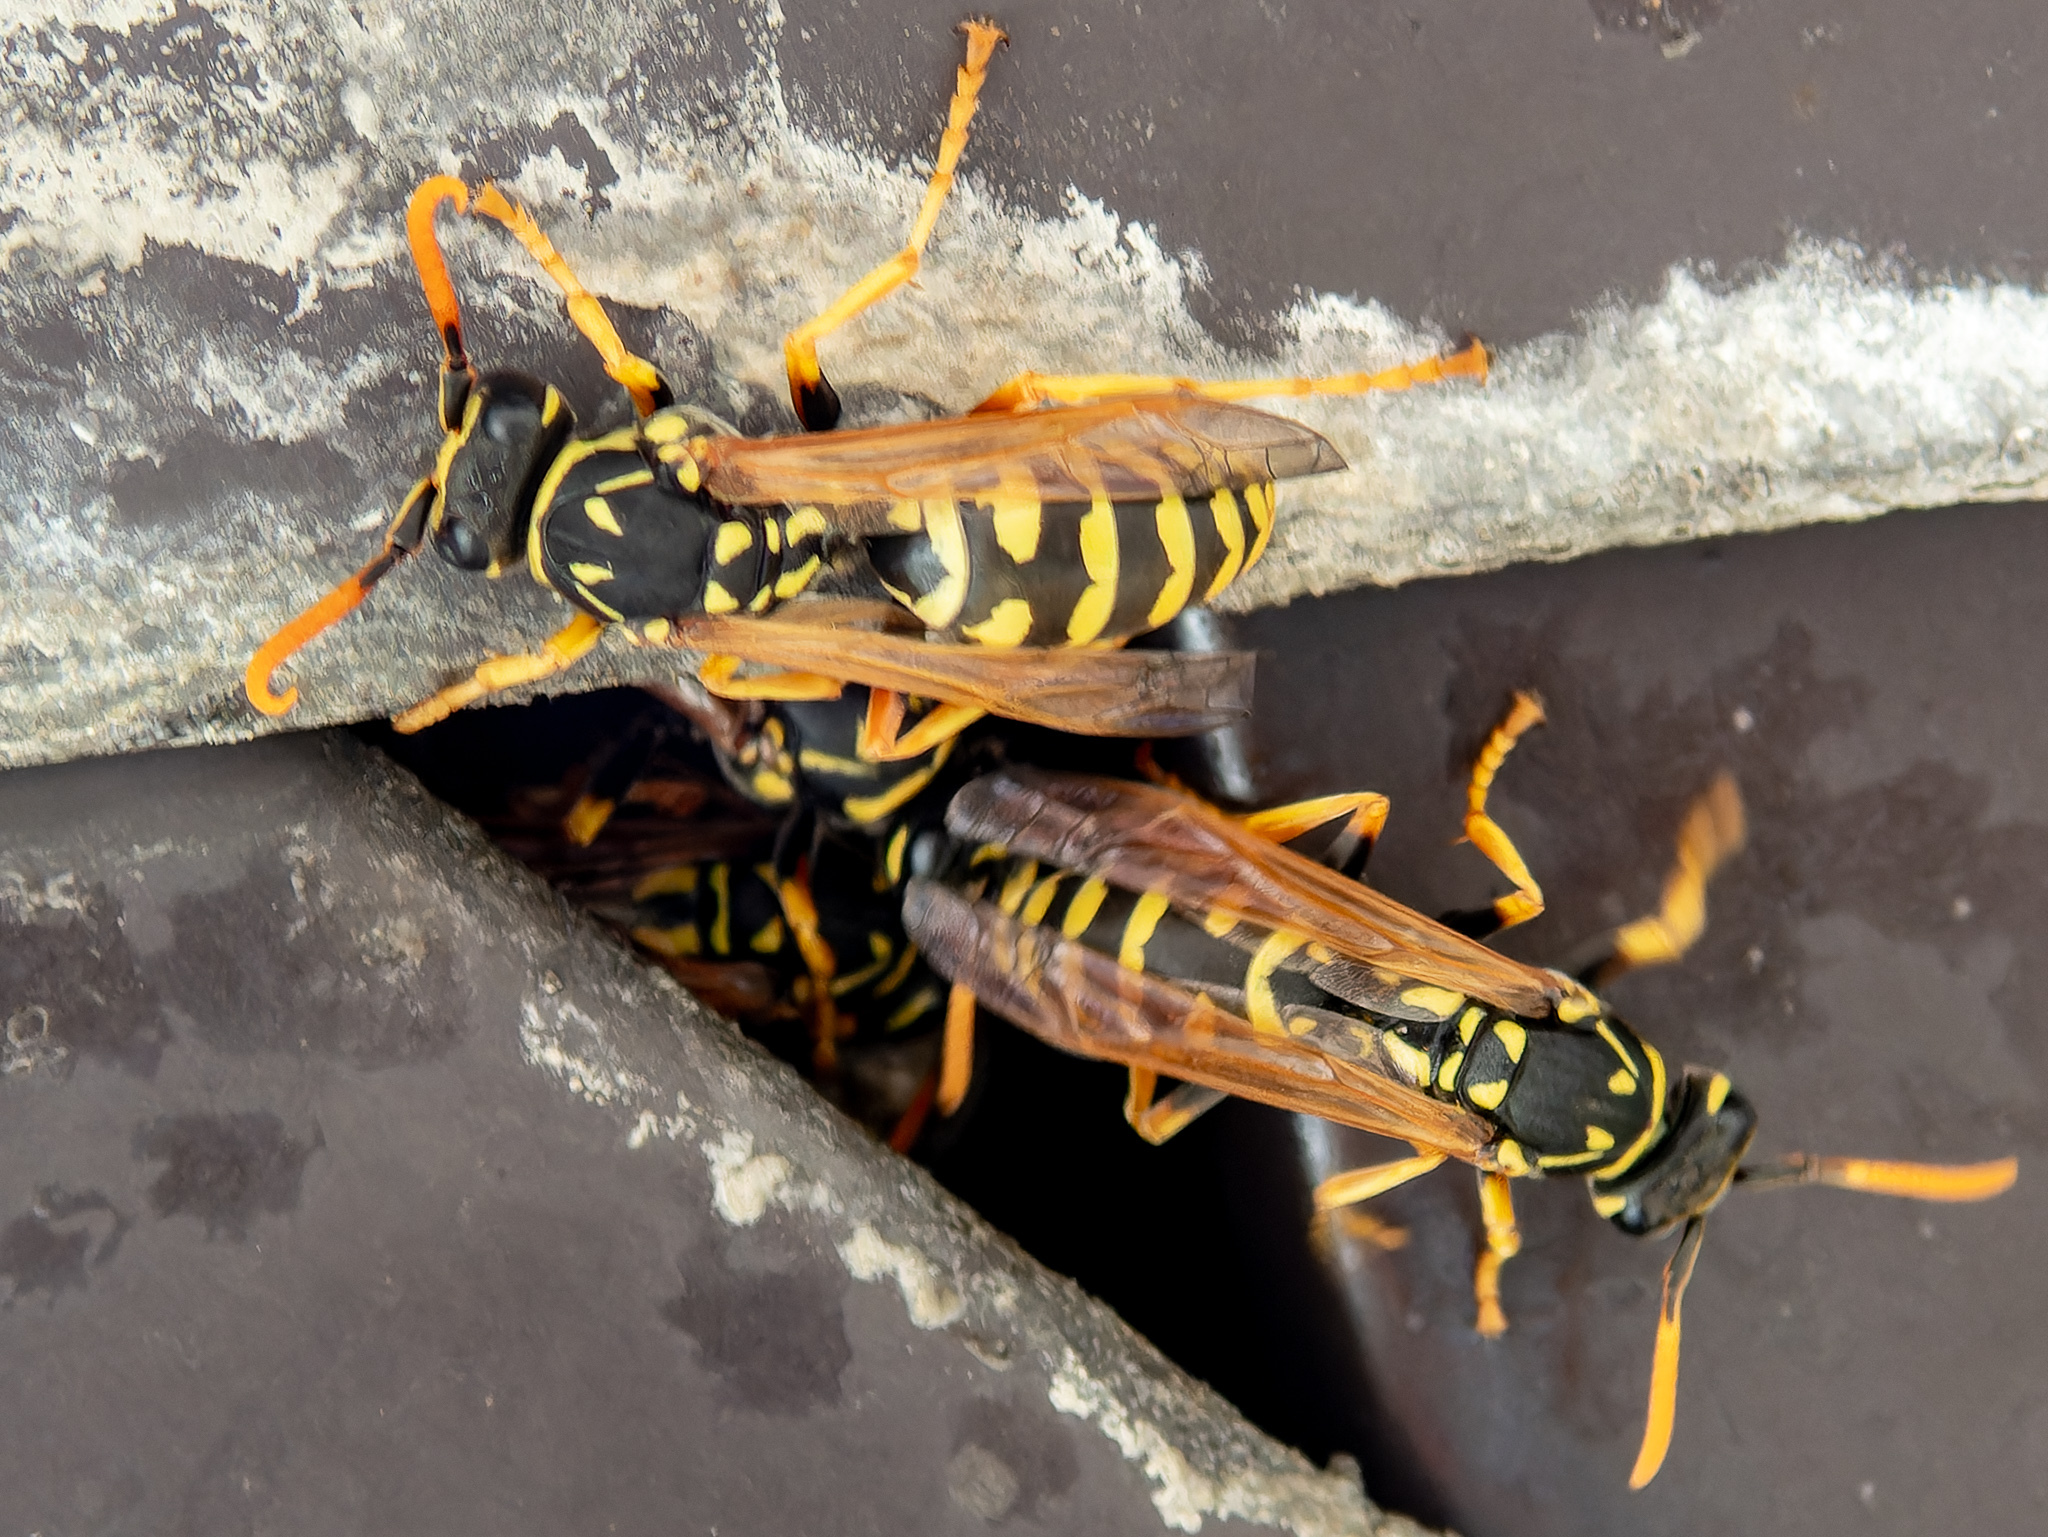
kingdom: Animalia
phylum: Arthropoda
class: Insecta
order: Hymenoptera
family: Eumenidae
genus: Polistes
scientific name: Polistes dominula
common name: Paper wasp
